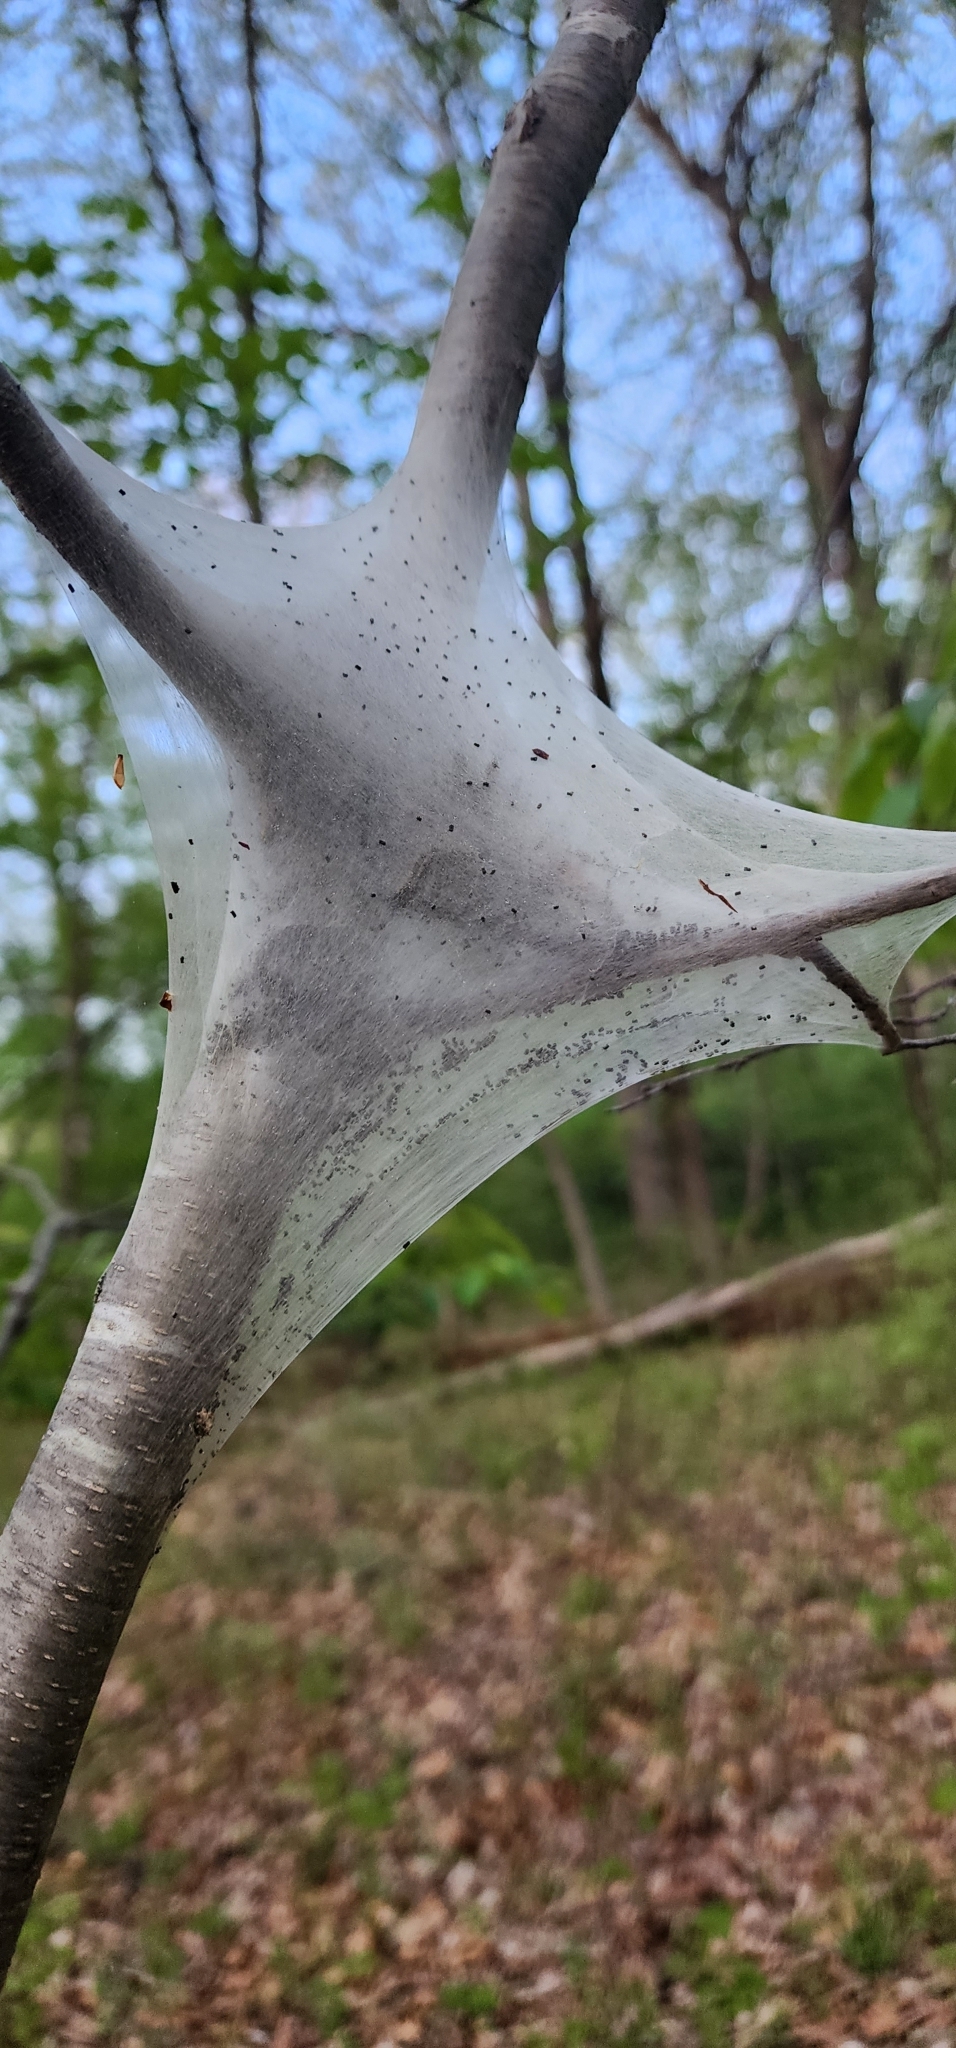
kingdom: Animalia
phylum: Arthropoda
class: Insecta
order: Lepidoptera
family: Lasiocampidae
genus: Malacosoma
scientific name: Malacosoma americana
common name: Eastern tent caterpillar moth
